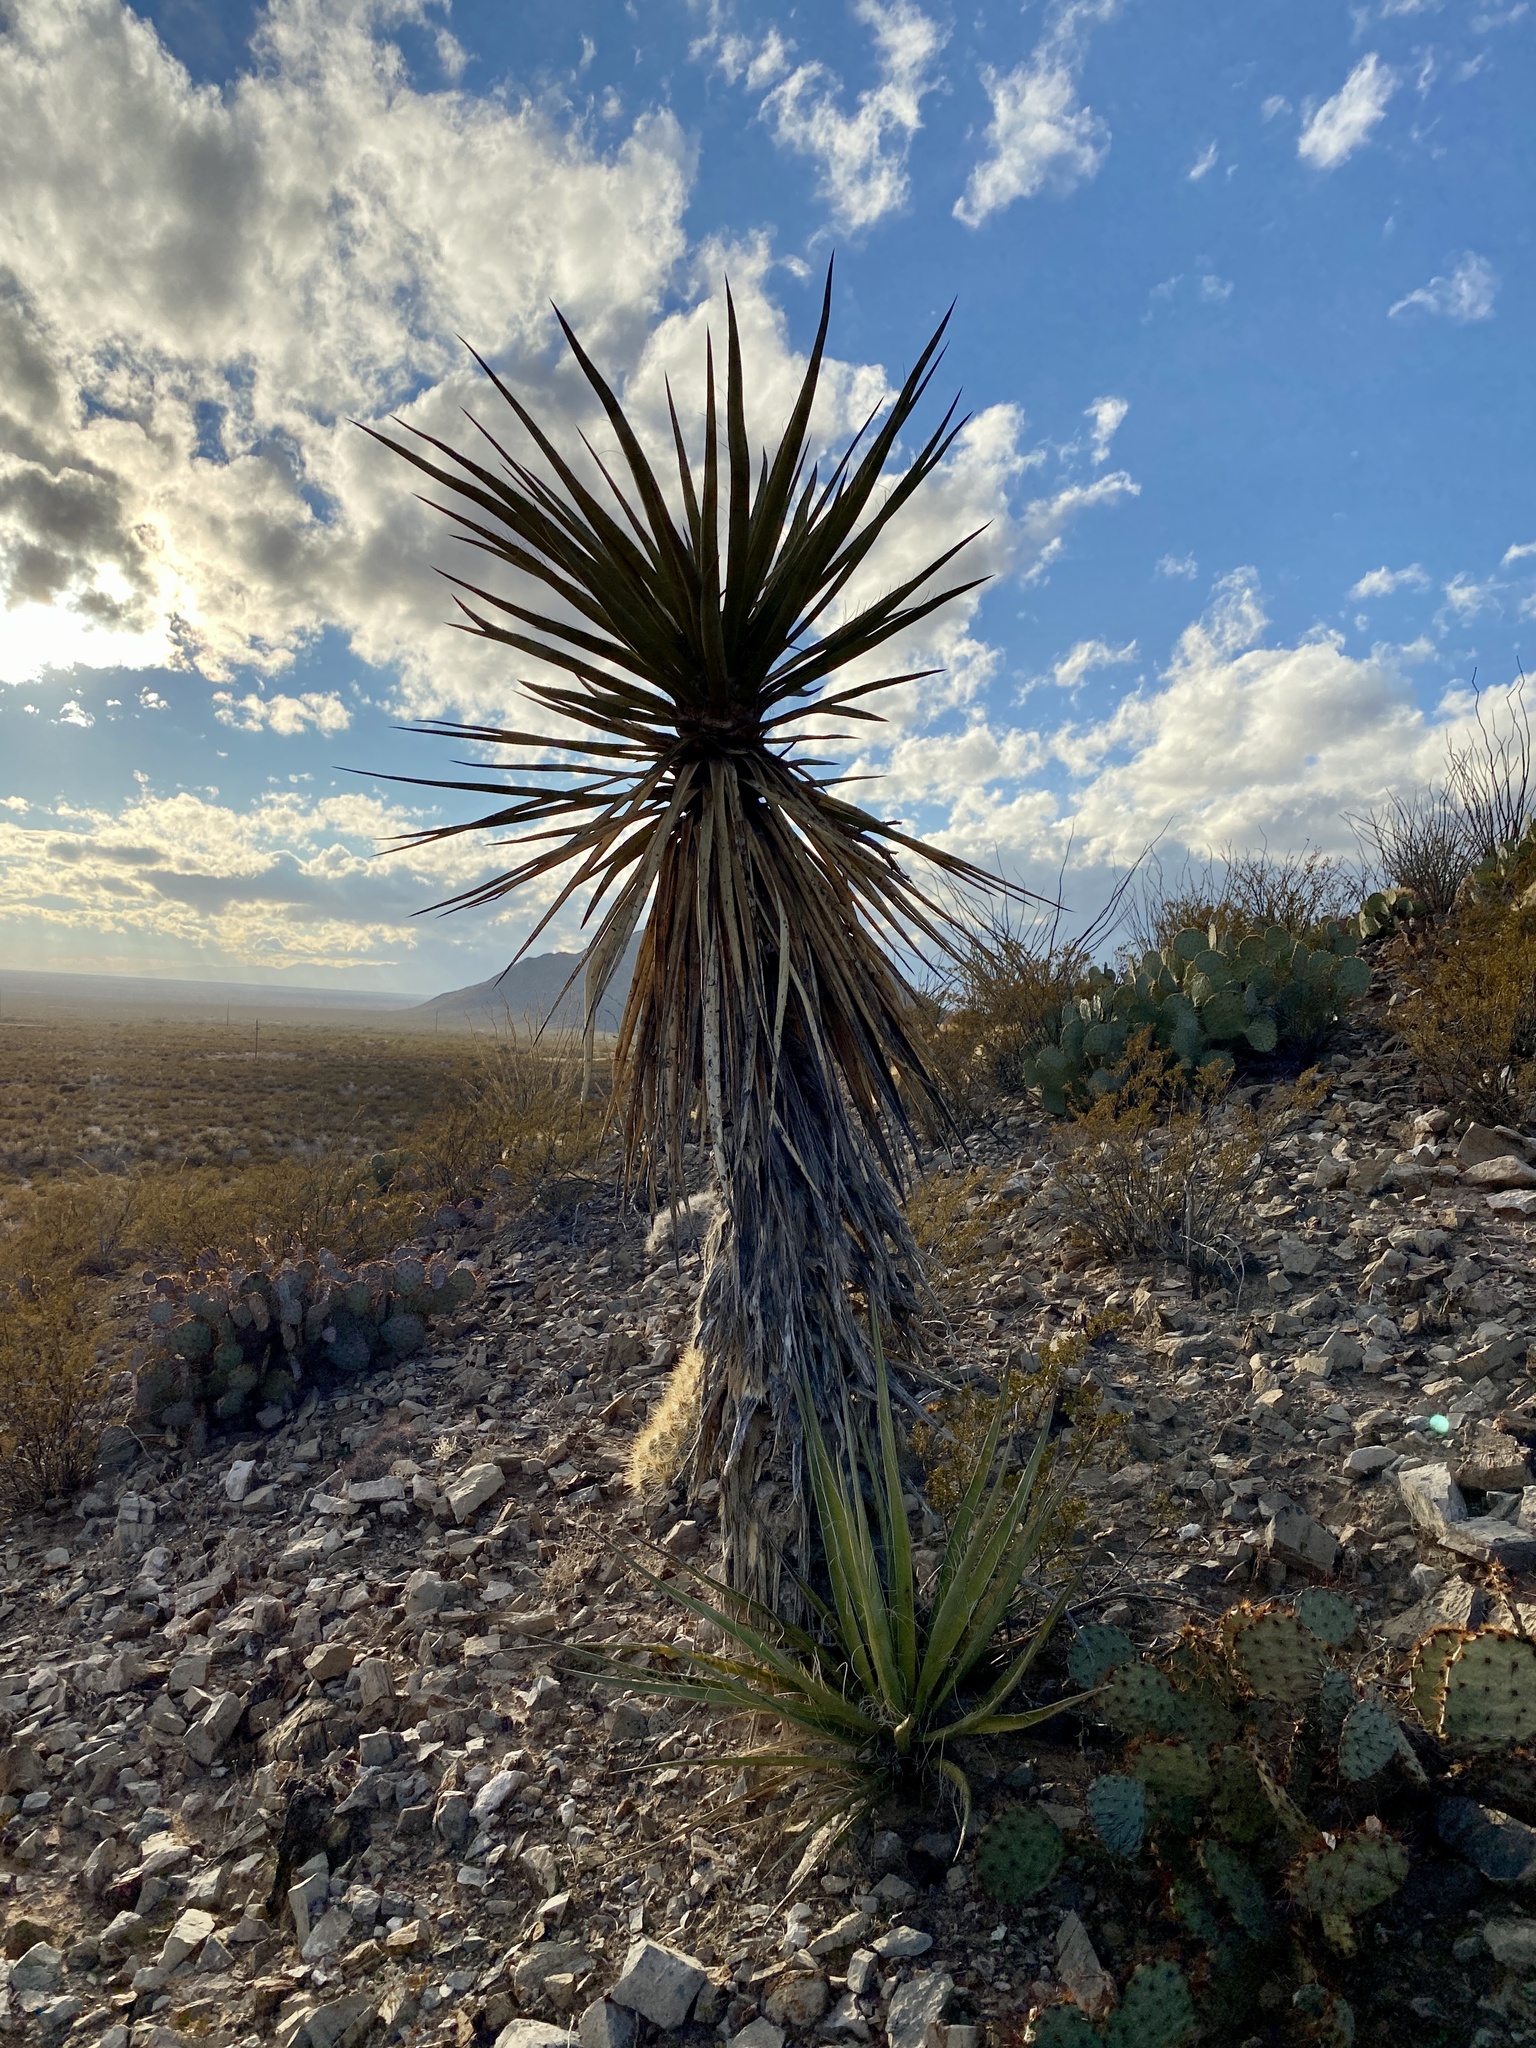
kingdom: Plantae
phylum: Tracheophyta
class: Liliopsida
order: Asparagales
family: Asparagaceae
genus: Yucca
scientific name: Yucca treculiana
